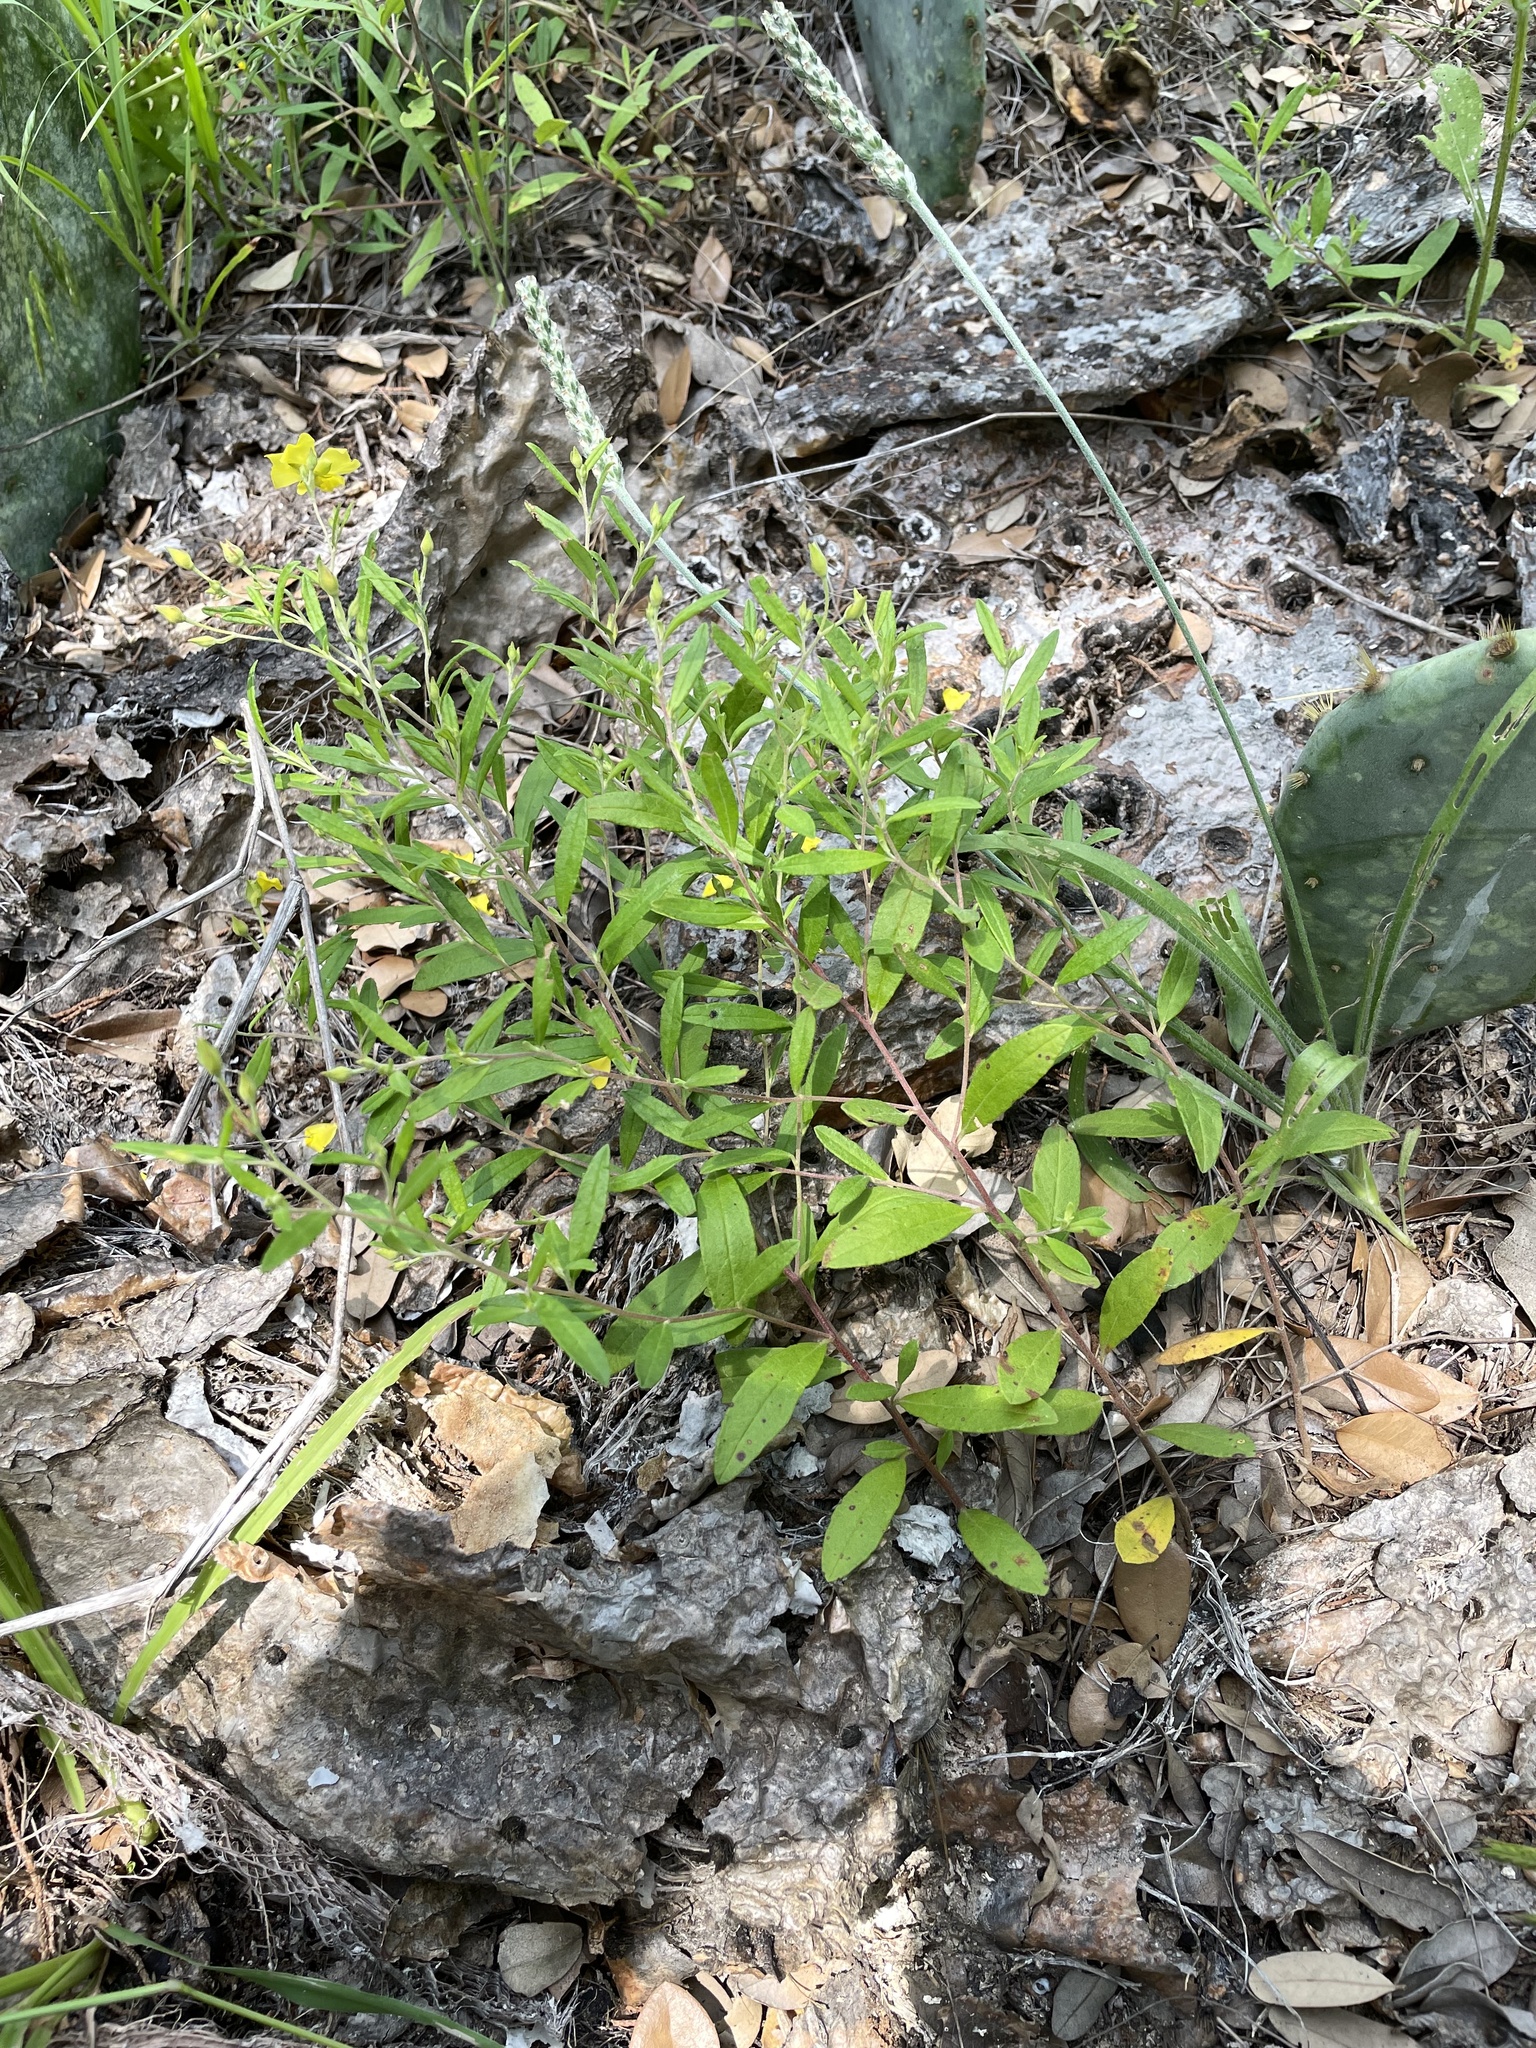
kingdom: Plantae
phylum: Tracheophyta
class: Magnoliopsida
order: Malvales
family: Cistaceae
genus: Crocanthemum
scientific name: Crocanthemum georgianum
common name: Georgia frostweed
